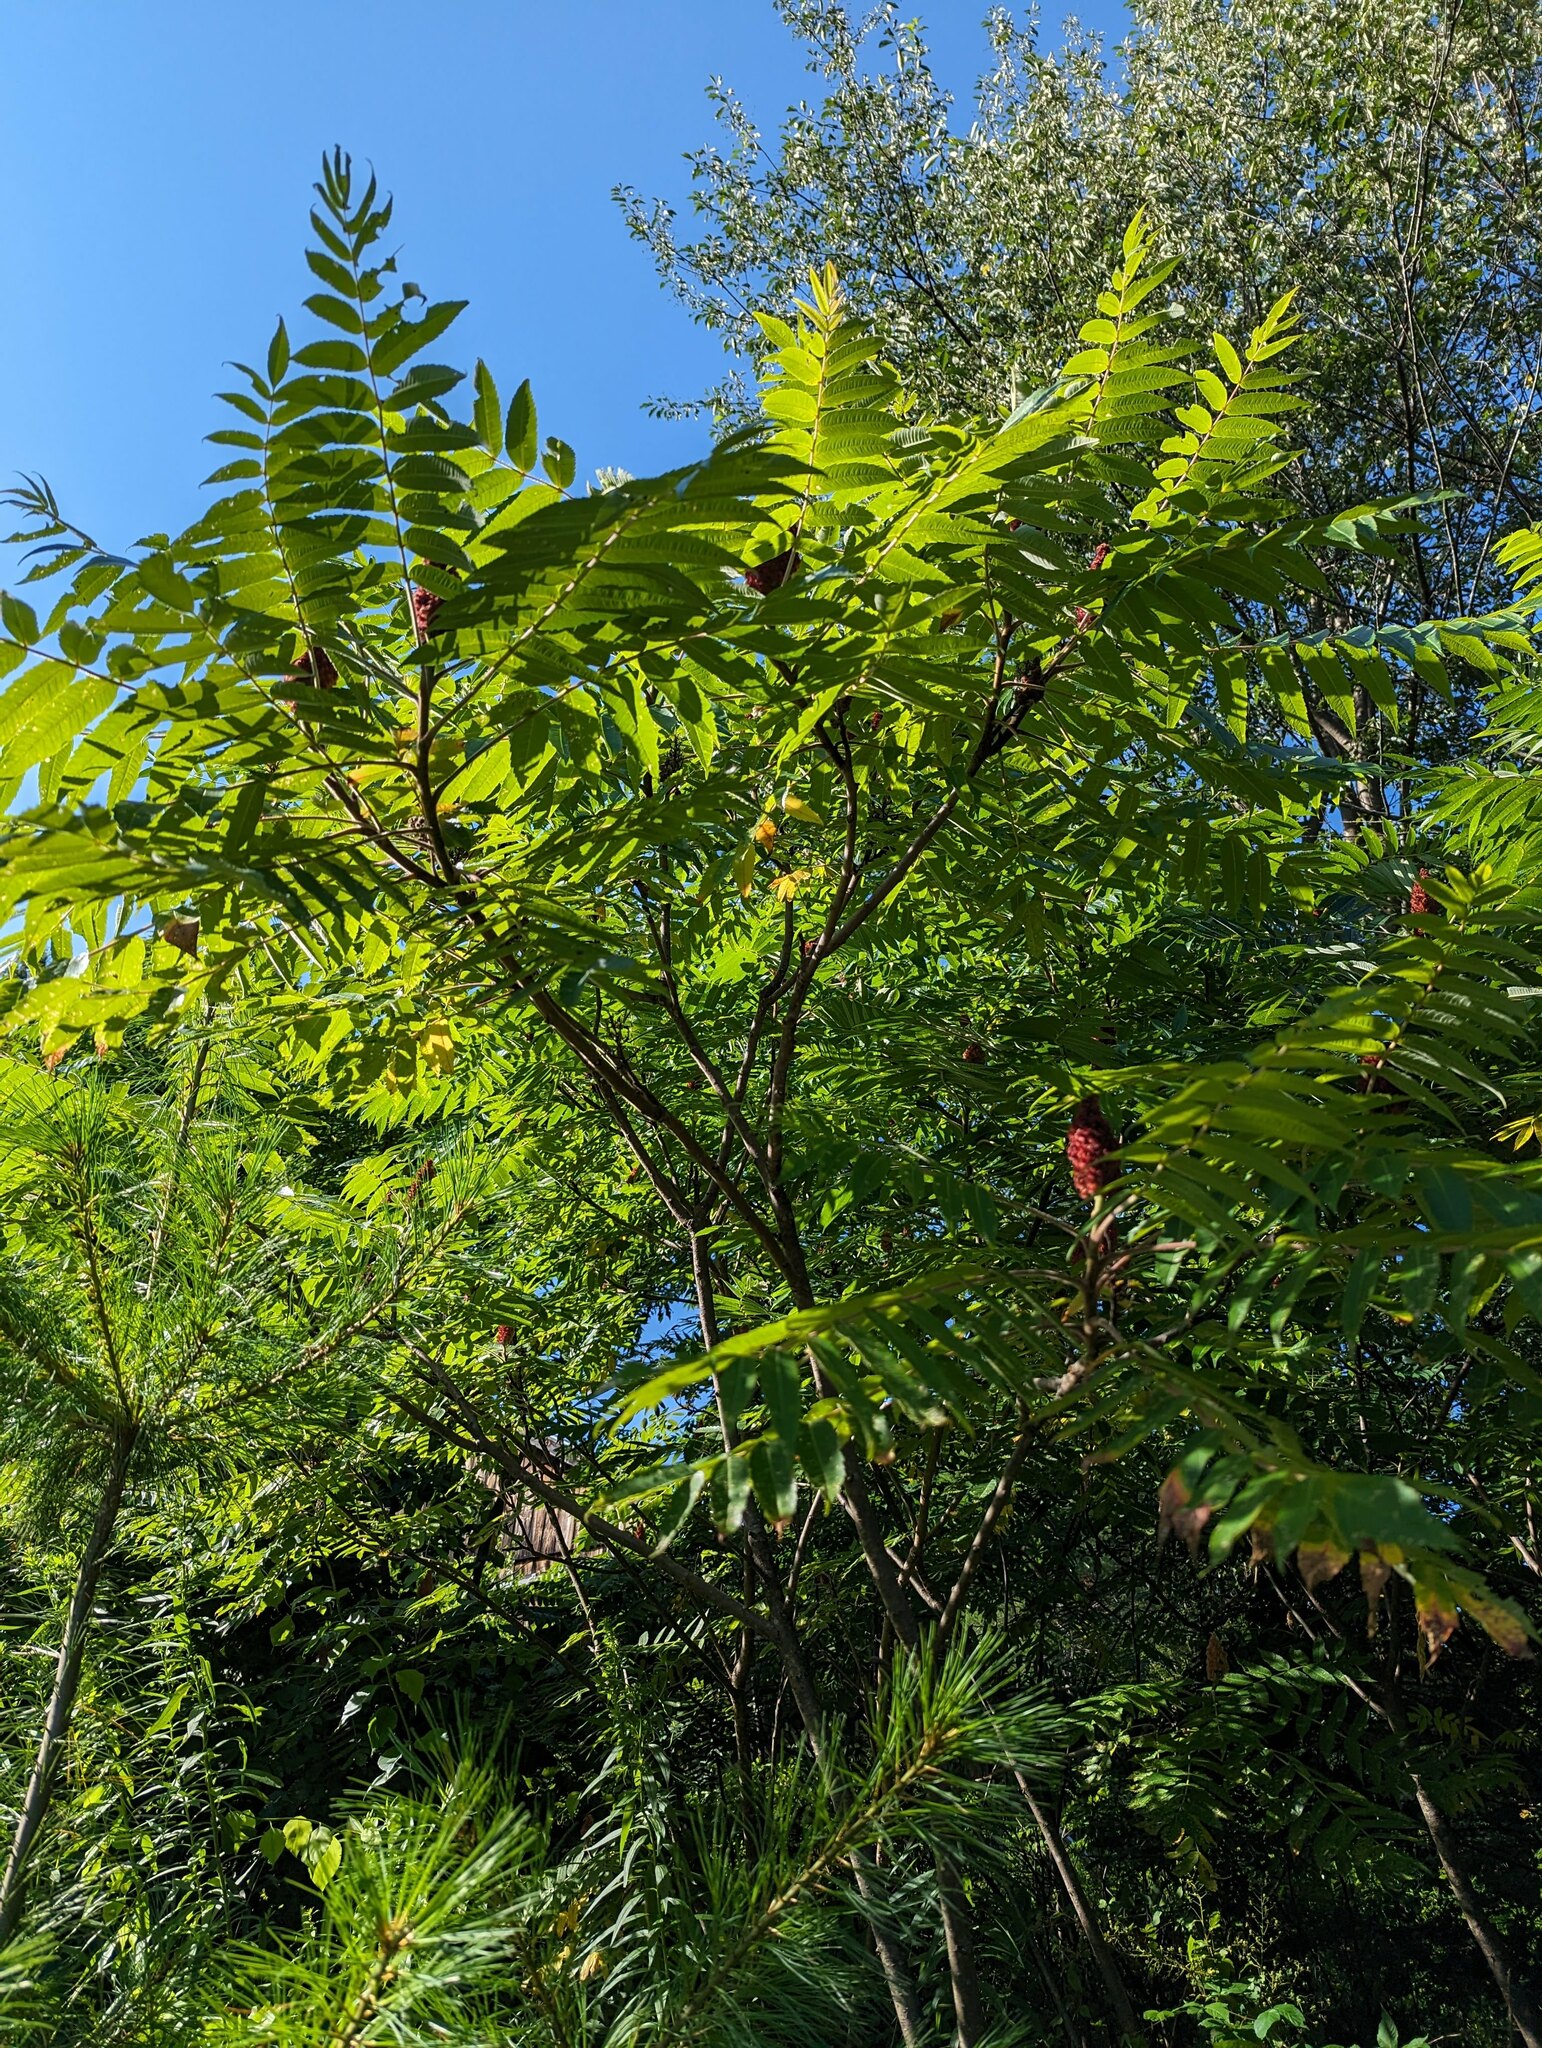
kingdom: Plantae
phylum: Tracheophyta
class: Magnoliopsida
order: Sapindales
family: Anacardiaceae
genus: Rhus
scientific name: Rhus typhina
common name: Staghorn sumac
